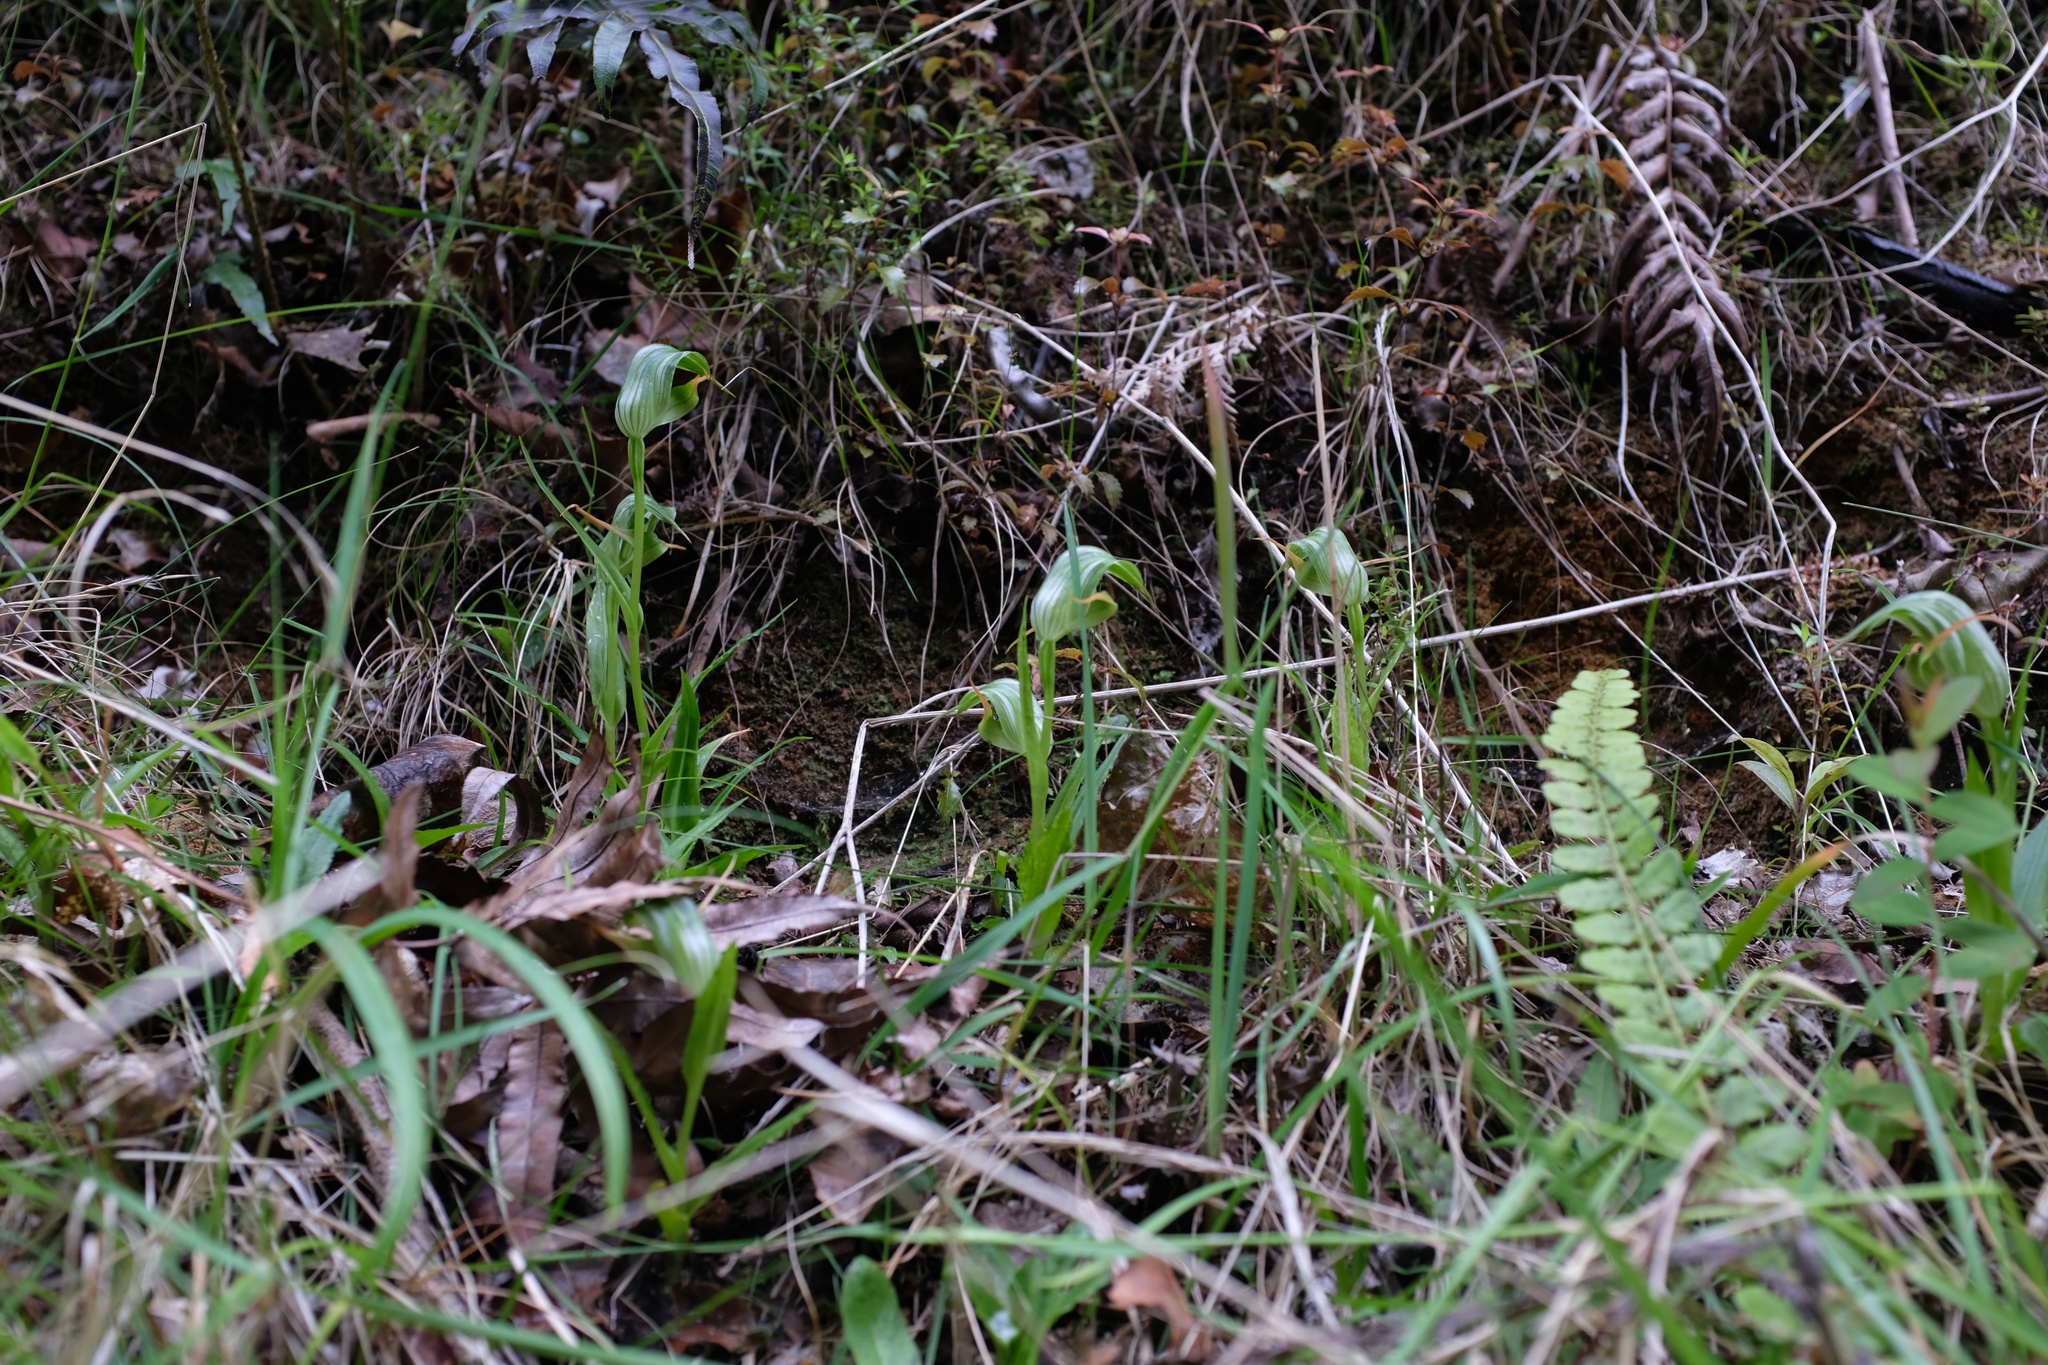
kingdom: Plantae
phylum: Tracheophyta
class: Liliopsida
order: Asparagales
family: Orchidaceae
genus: Pterostylis
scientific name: Pterostylis banksii
